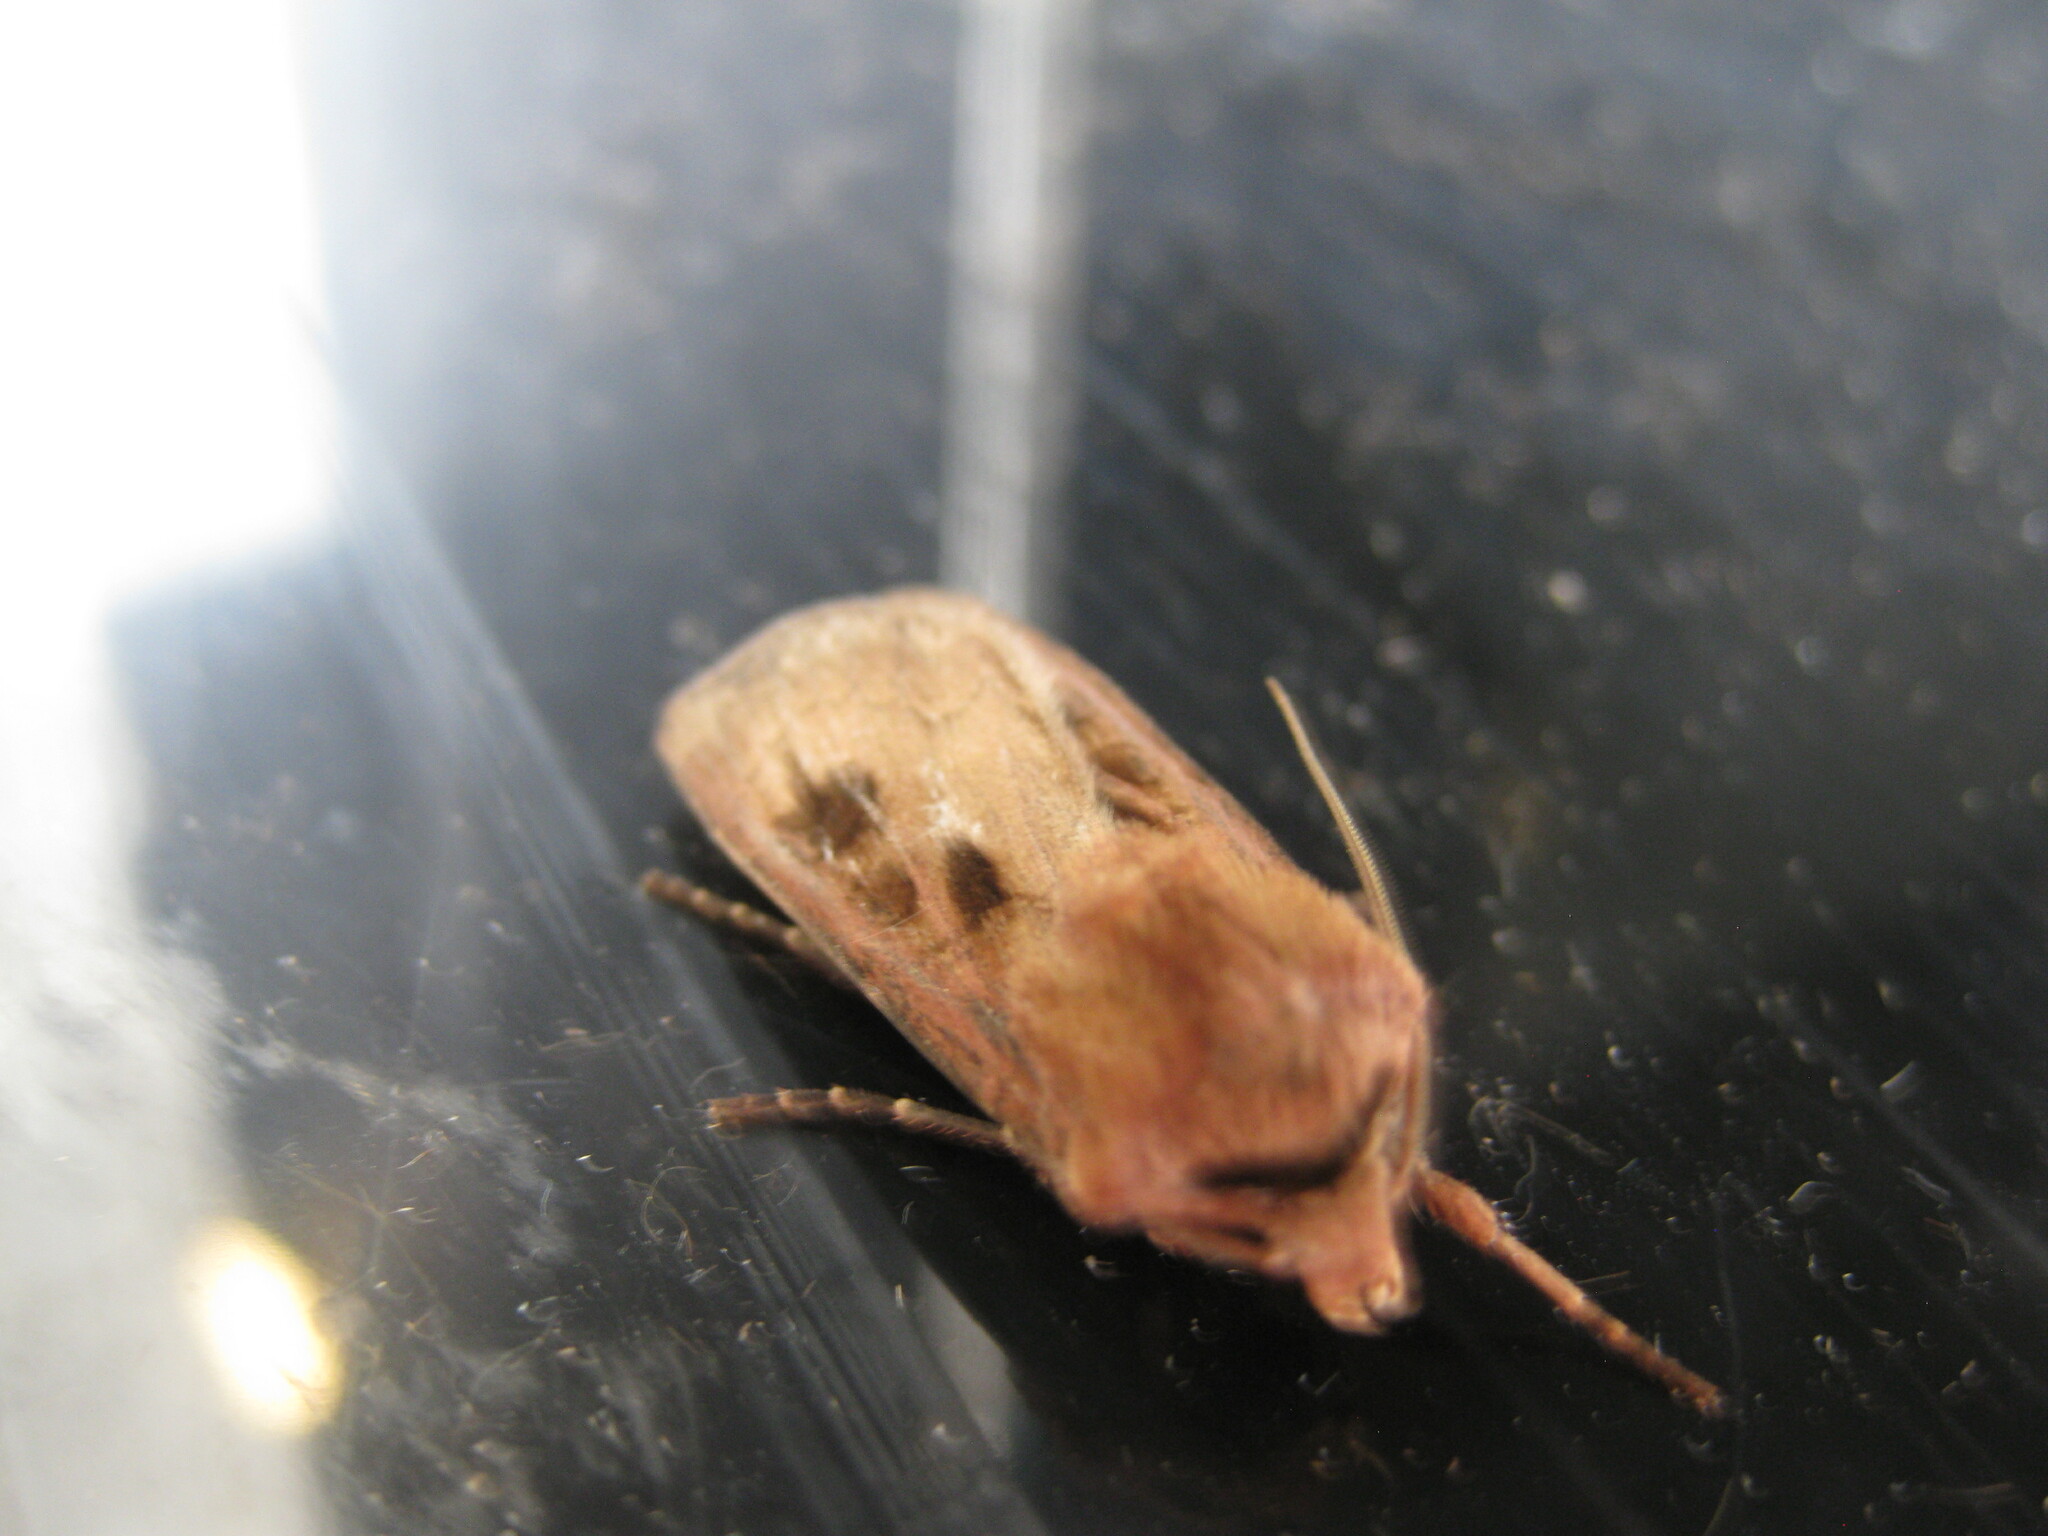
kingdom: Animalia
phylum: Arthropoda
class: Insecta
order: Lepidoptera
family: Noctuidae
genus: Agrotis
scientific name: Agrotis exclamationis
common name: Heart and dart
